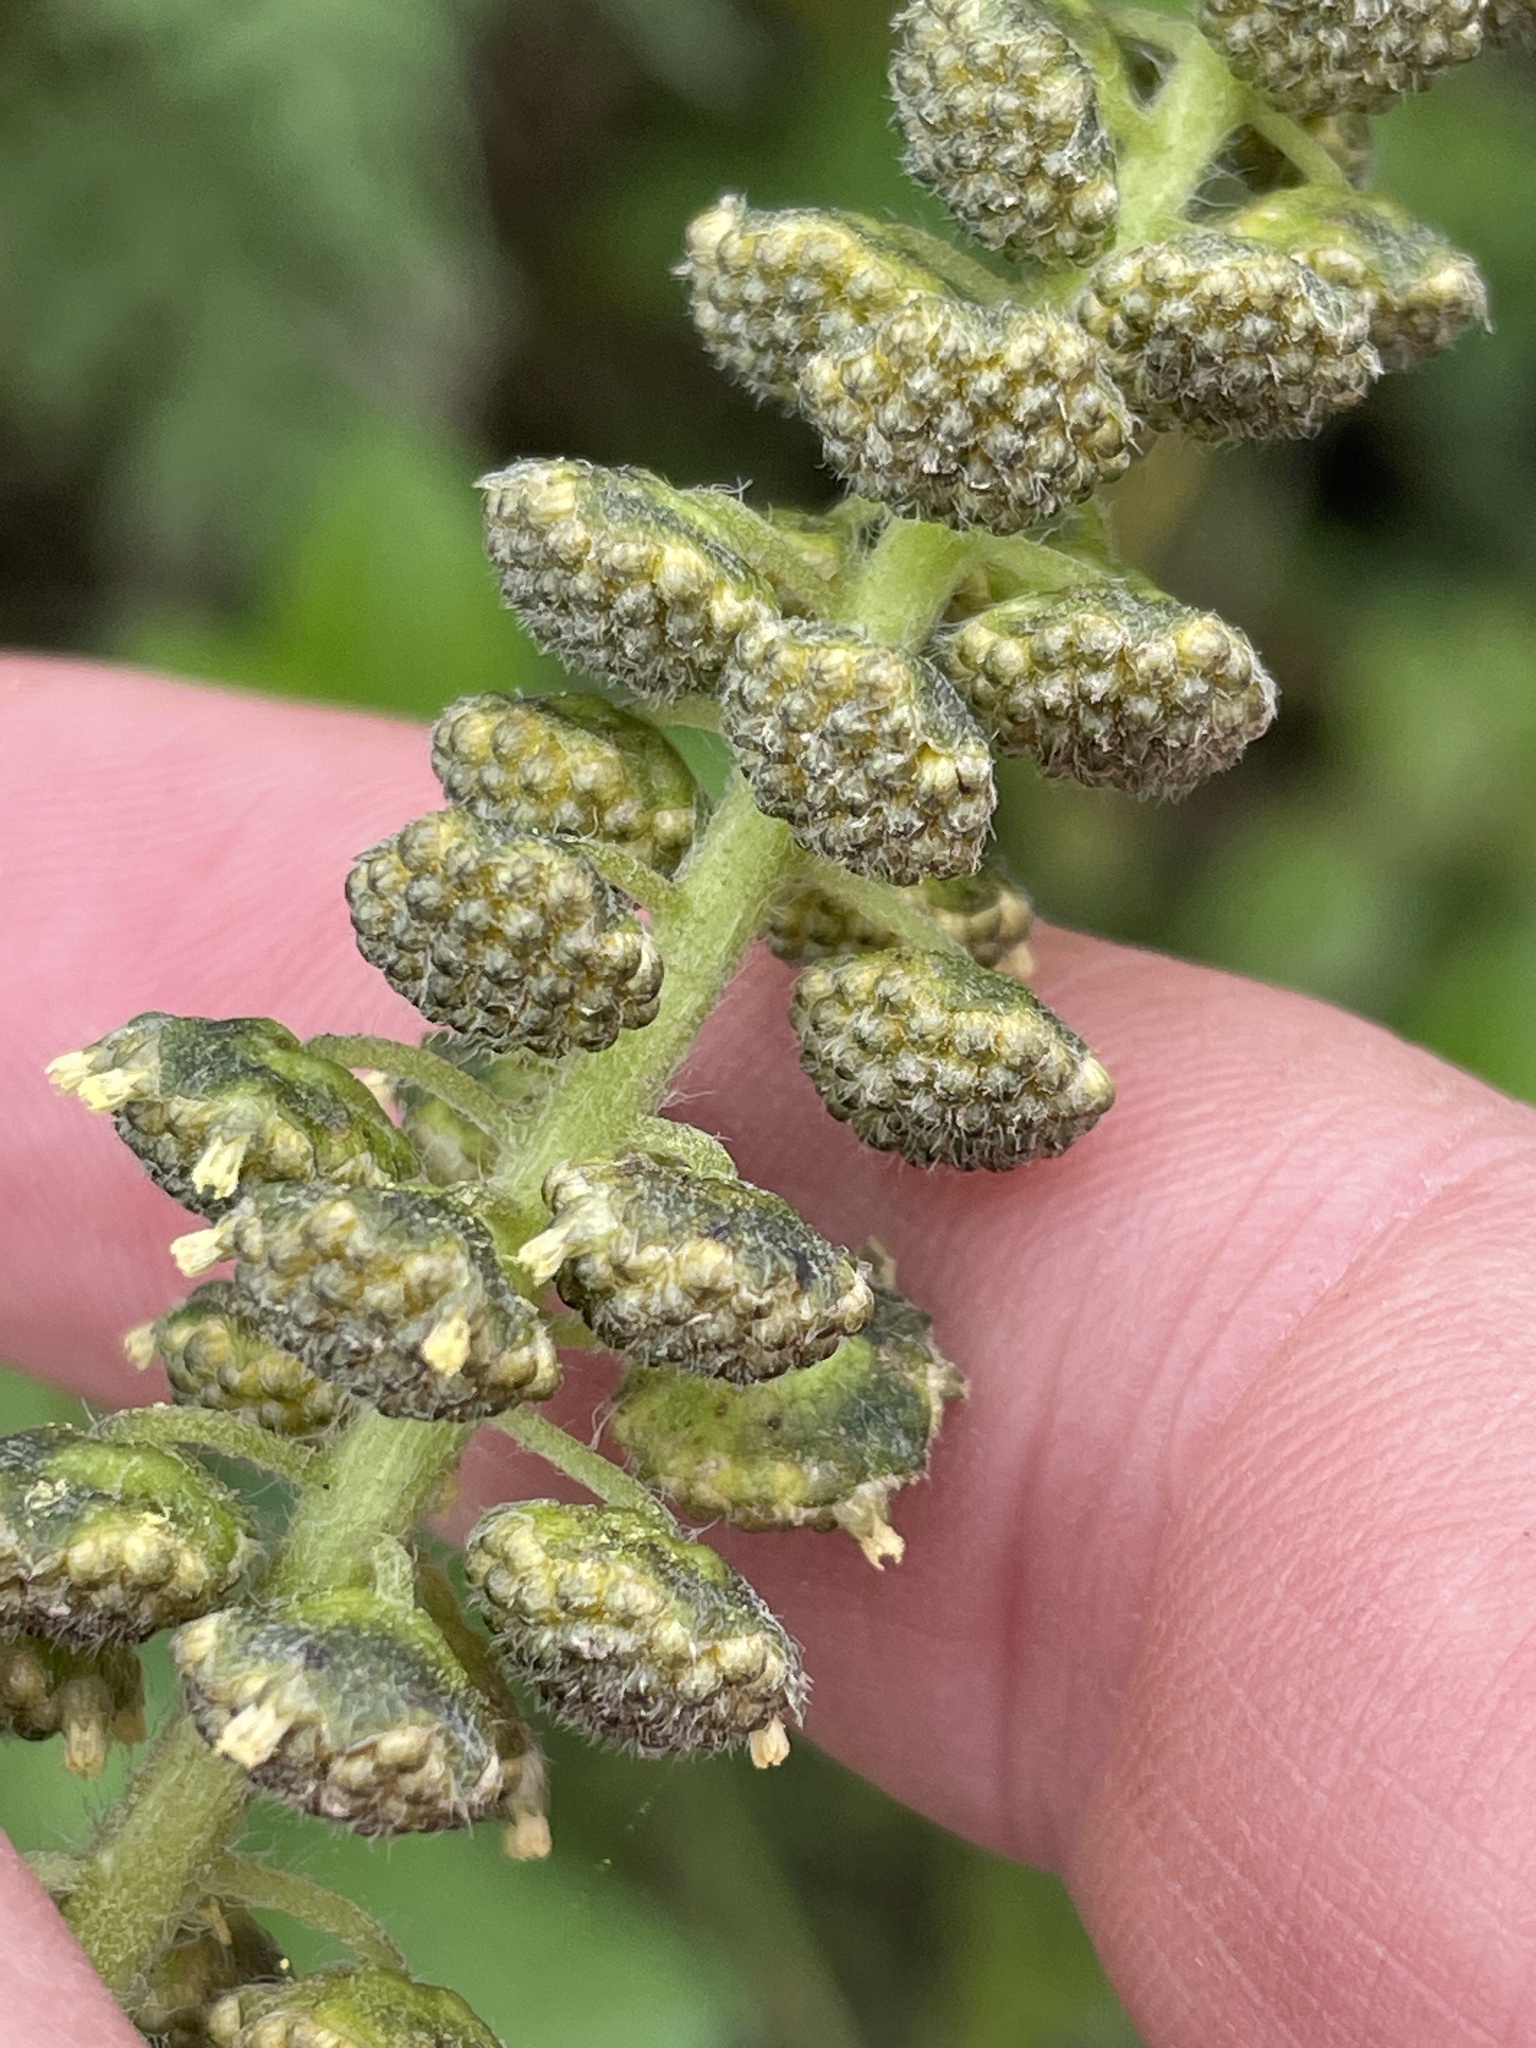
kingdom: Plantae
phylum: Tracheophyta
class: Magnoliopsida
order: Asterales
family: Asteraceae
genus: Ambrosia
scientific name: Ambrosia arborescens
